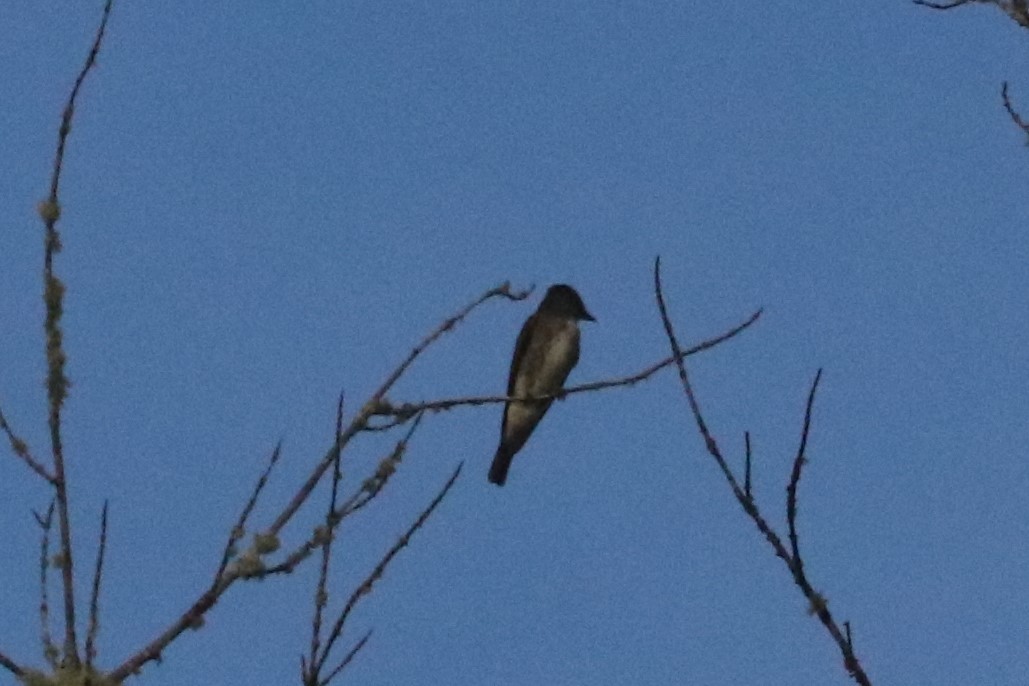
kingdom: Animalia
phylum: Chordata
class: Aves
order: Passeriformes
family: Tyrannidae
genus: Contopus
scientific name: Contopus cooperi
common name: Olive-sided flycatcher
